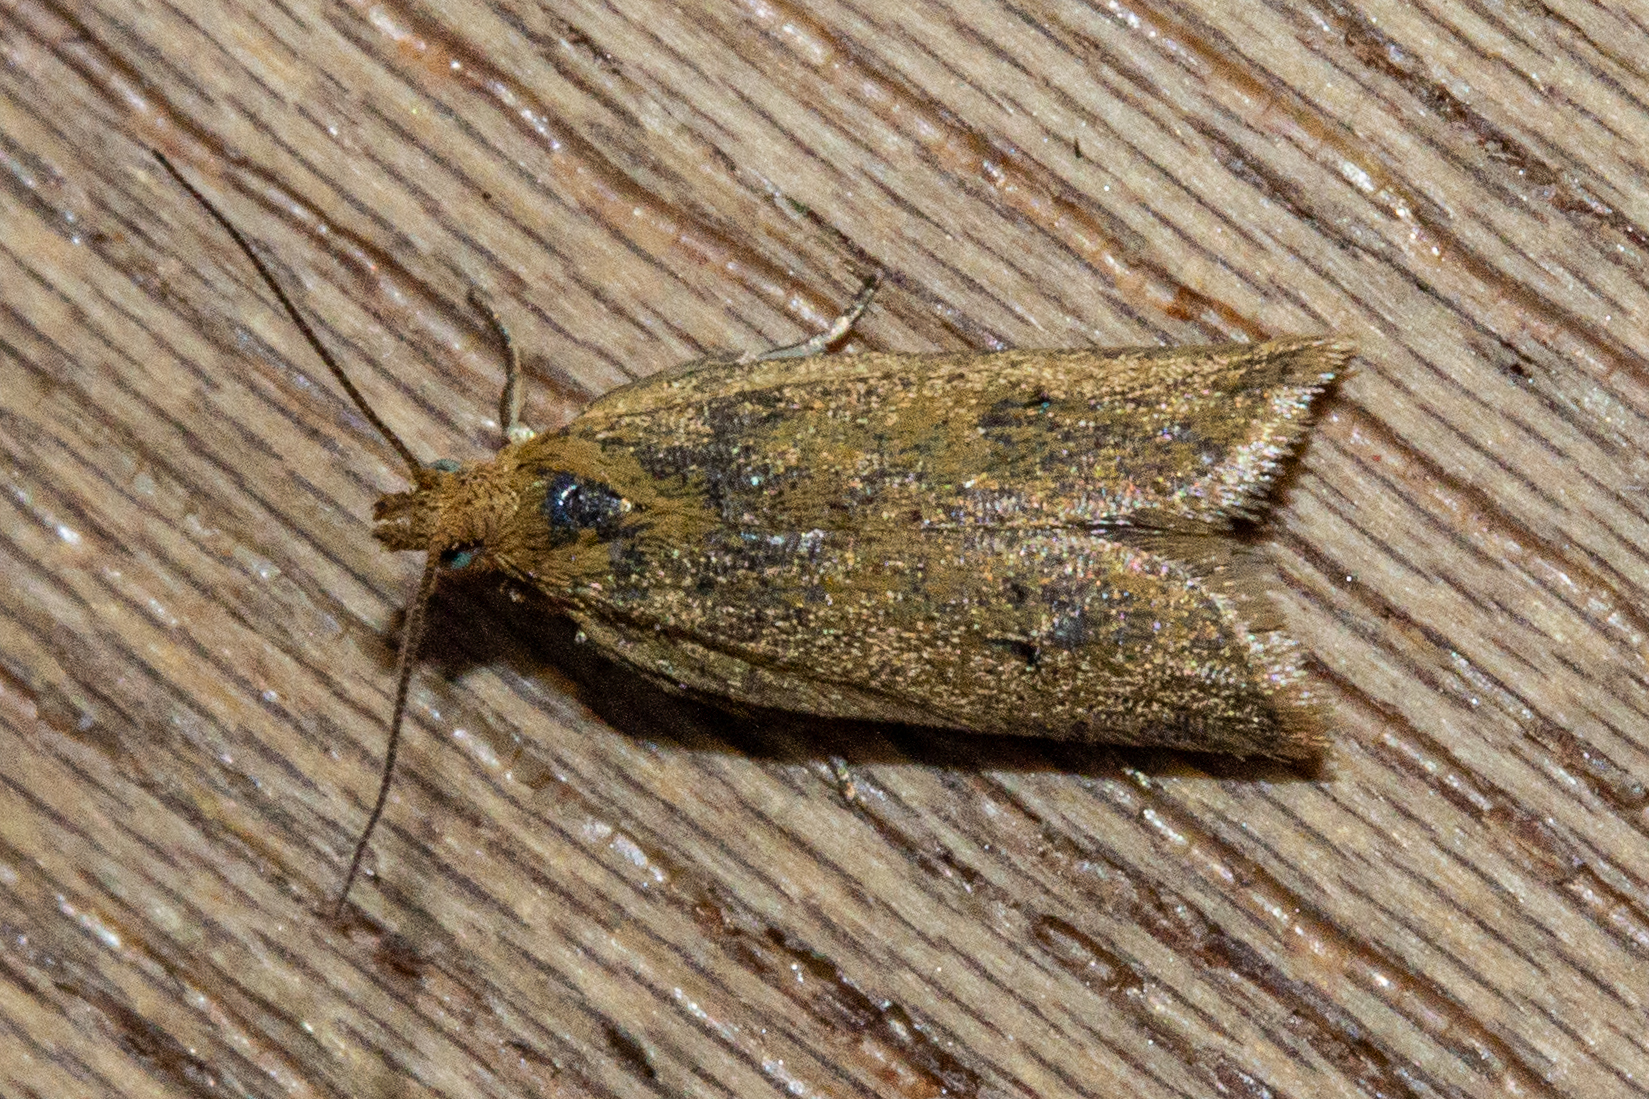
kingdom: Animalia
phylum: Arthropoda
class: Insecta
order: Lepidoptera
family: Tortricidae
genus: Epichorista
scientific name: Epichorista siriana
